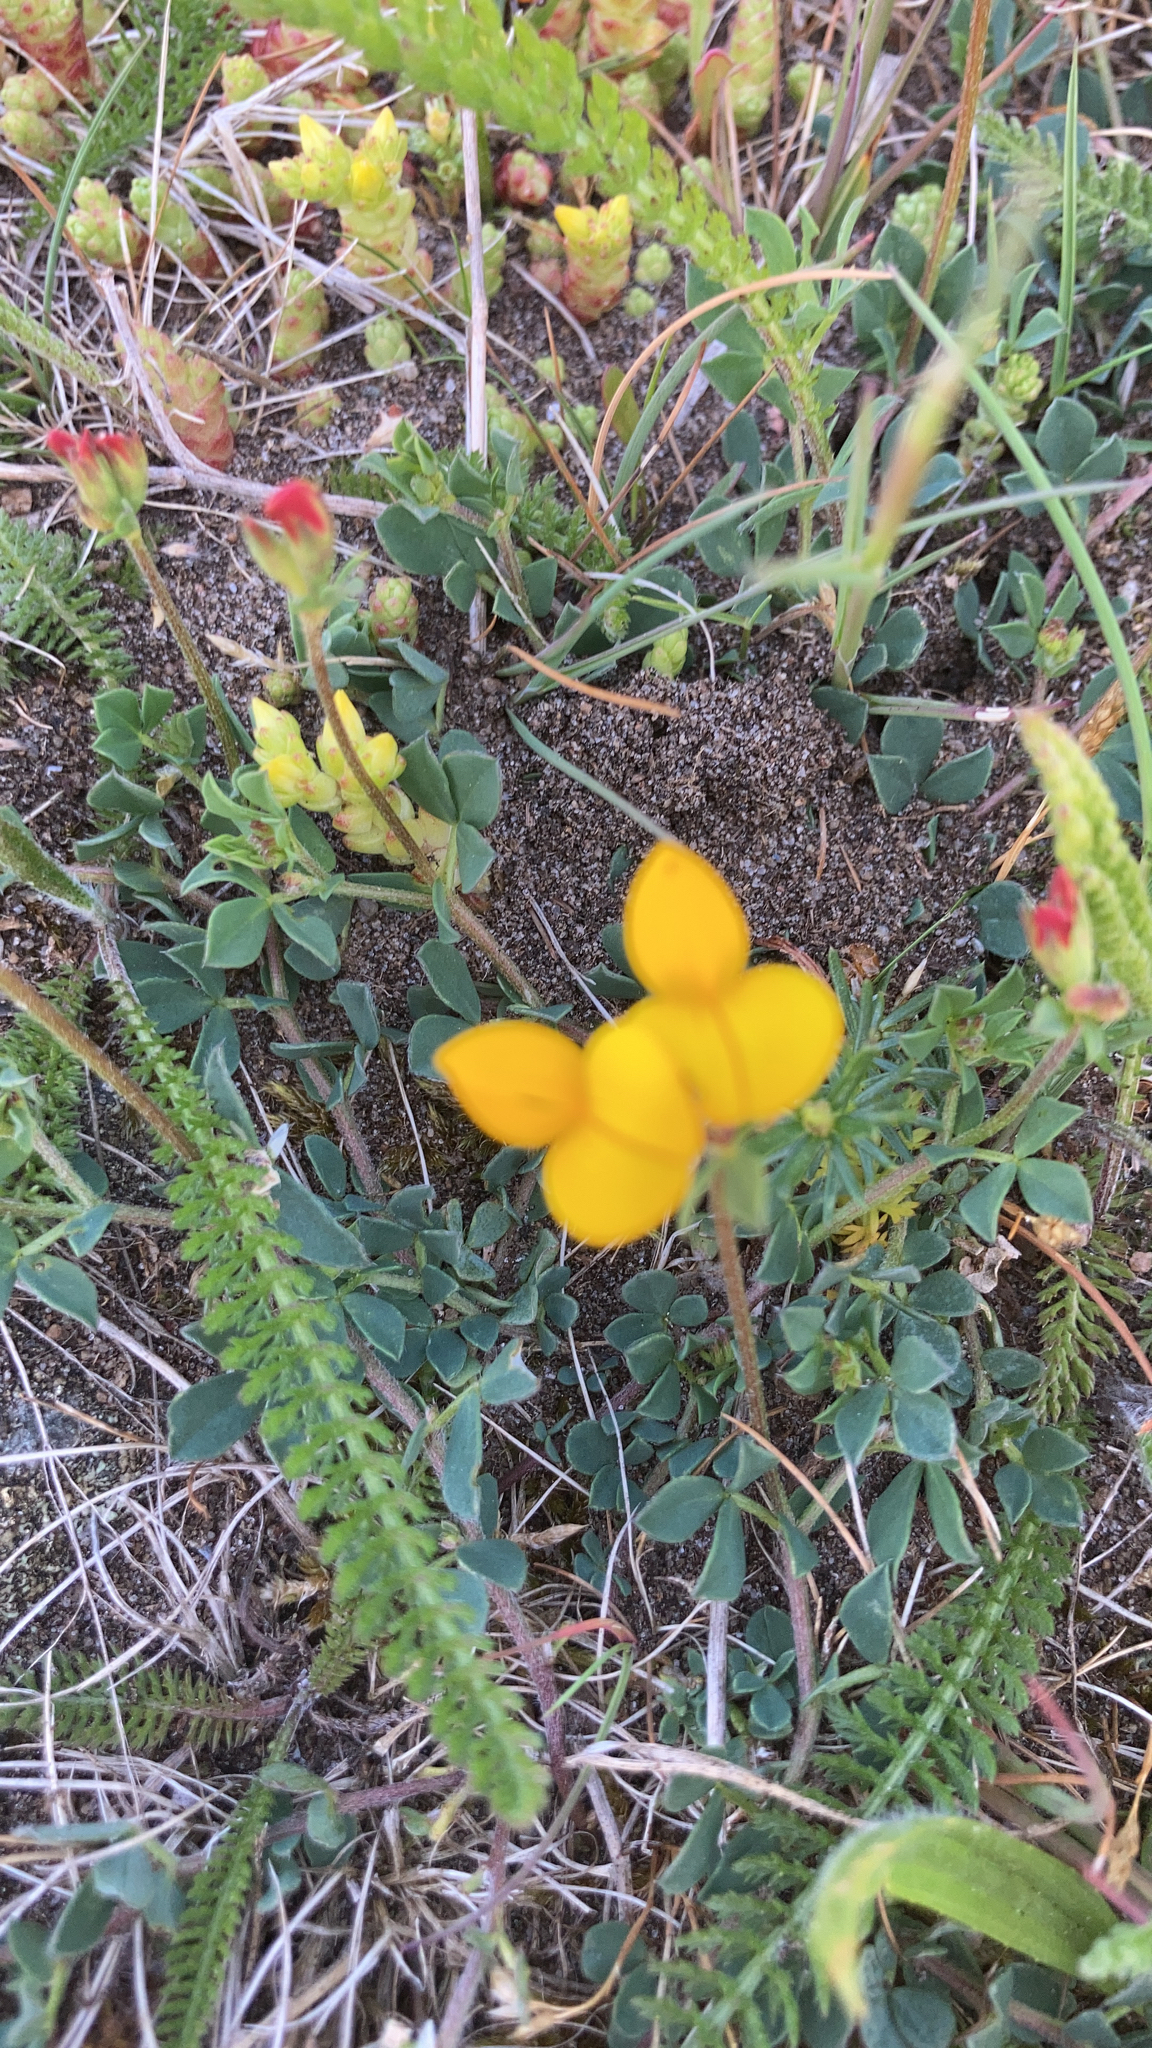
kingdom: Plantae
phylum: Tracheophyta
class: Magnoliopsida
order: Fabales
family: Fabaceae
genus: Lotus
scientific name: Lotus corniculatus
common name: Common bird's-foot-trefoil
